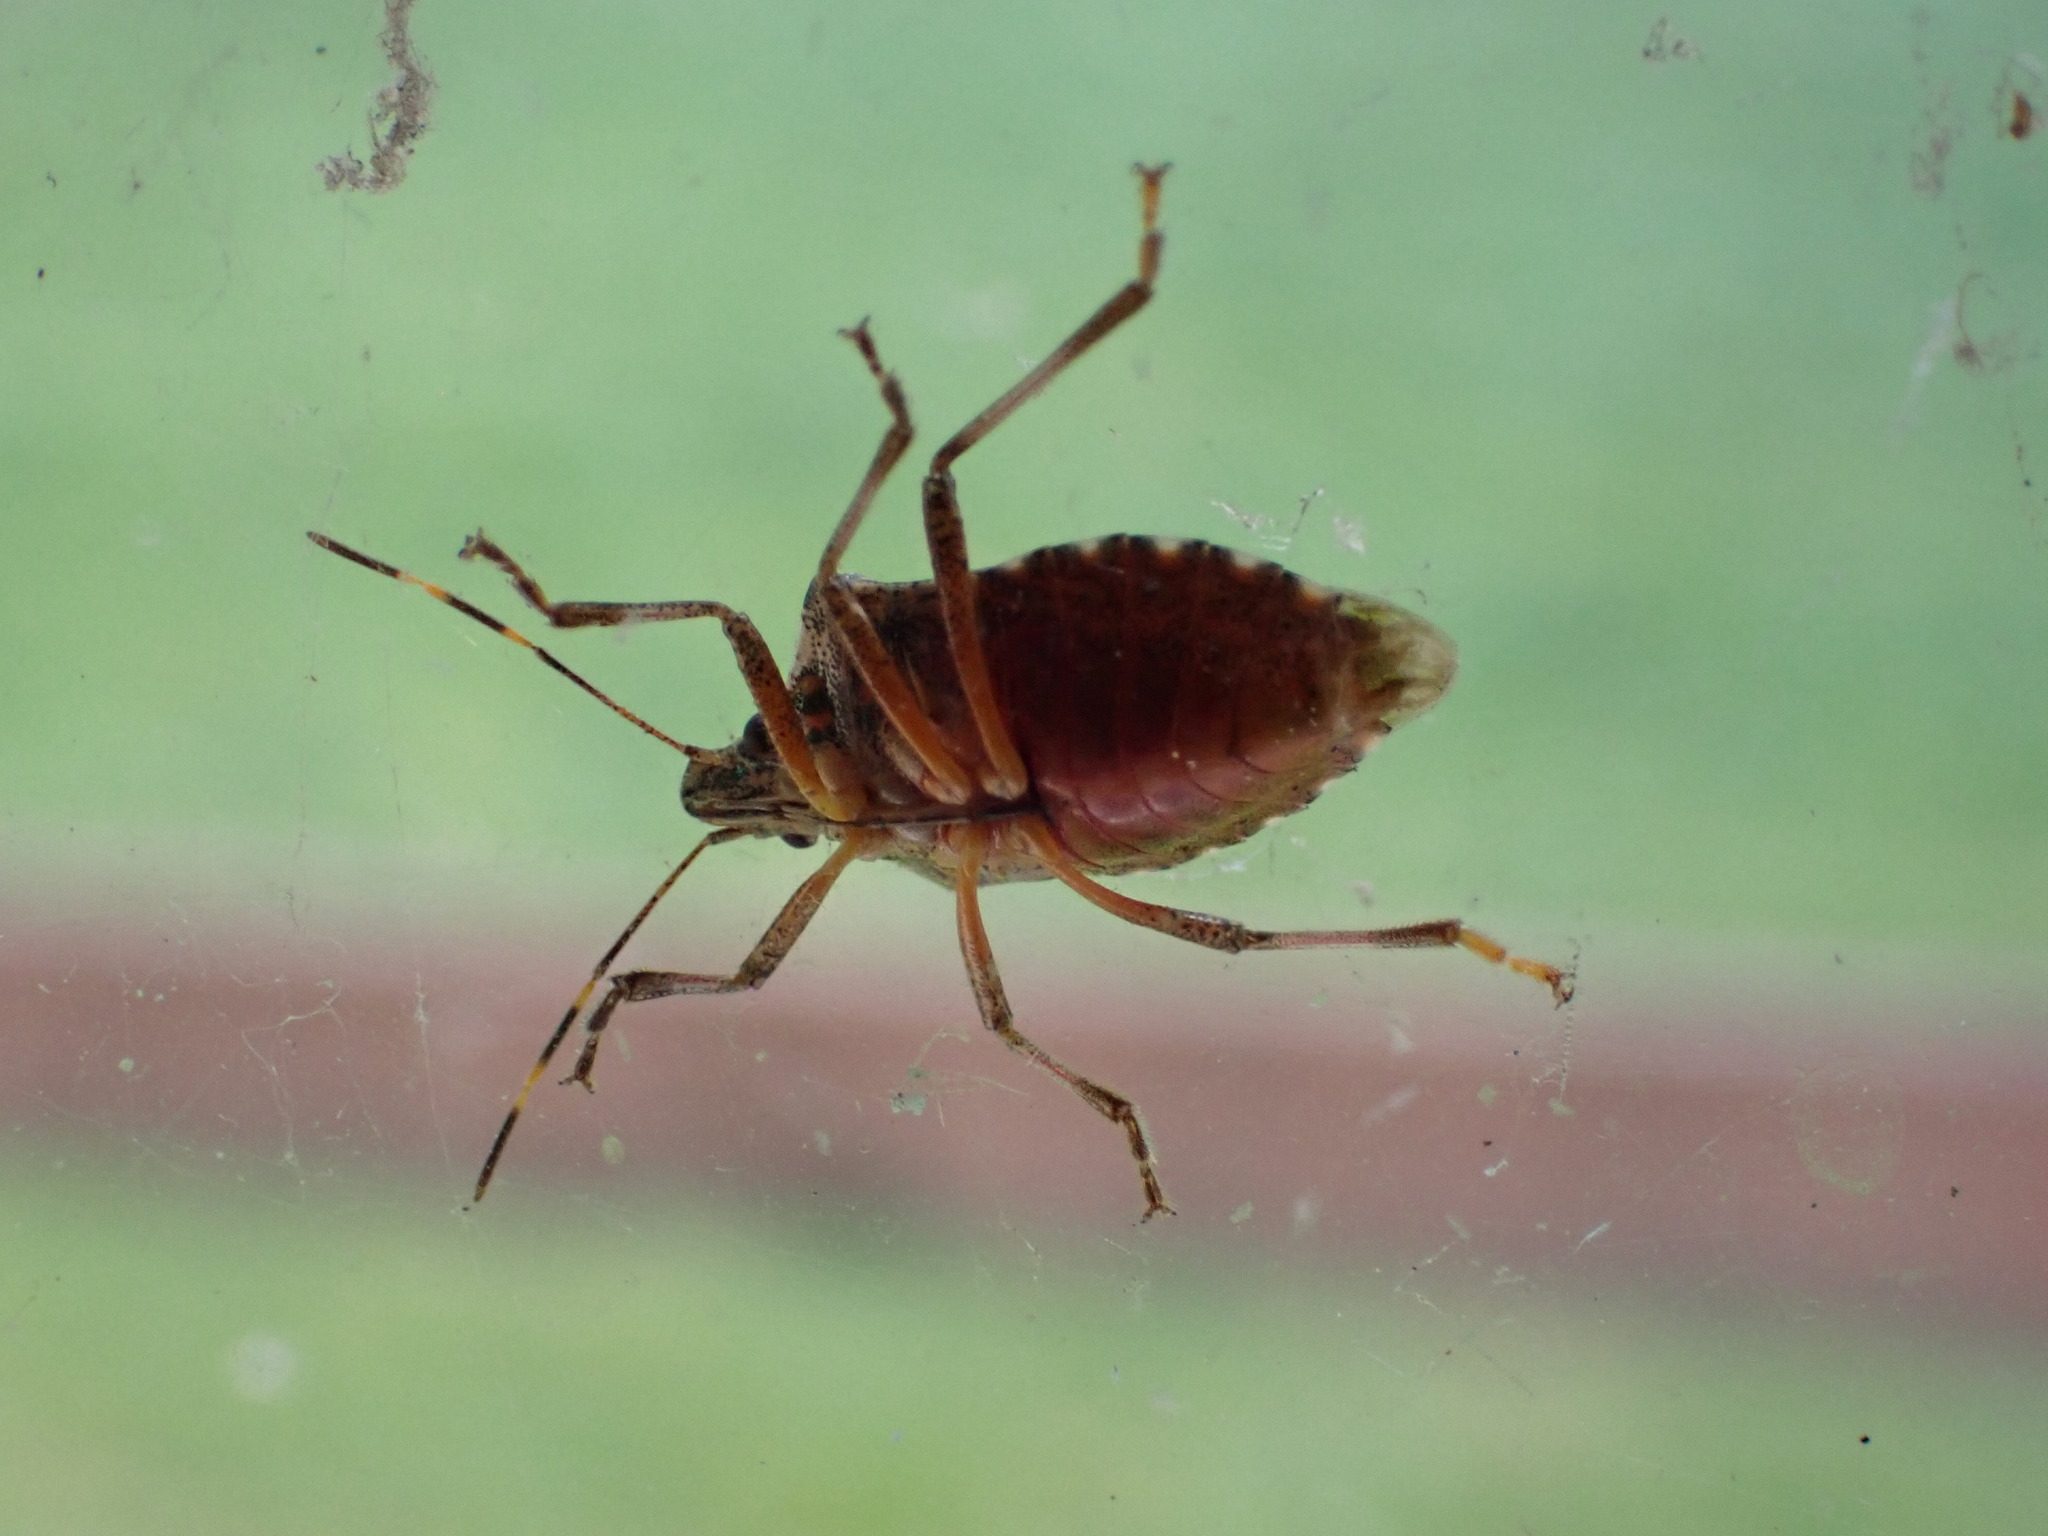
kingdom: Animalia
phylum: Arthropoda
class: Insecta
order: Hemiptera
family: Pentatomidae
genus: Halyomorpha
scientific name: Halyomorpha halys
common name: Brown marmorated stink bug
